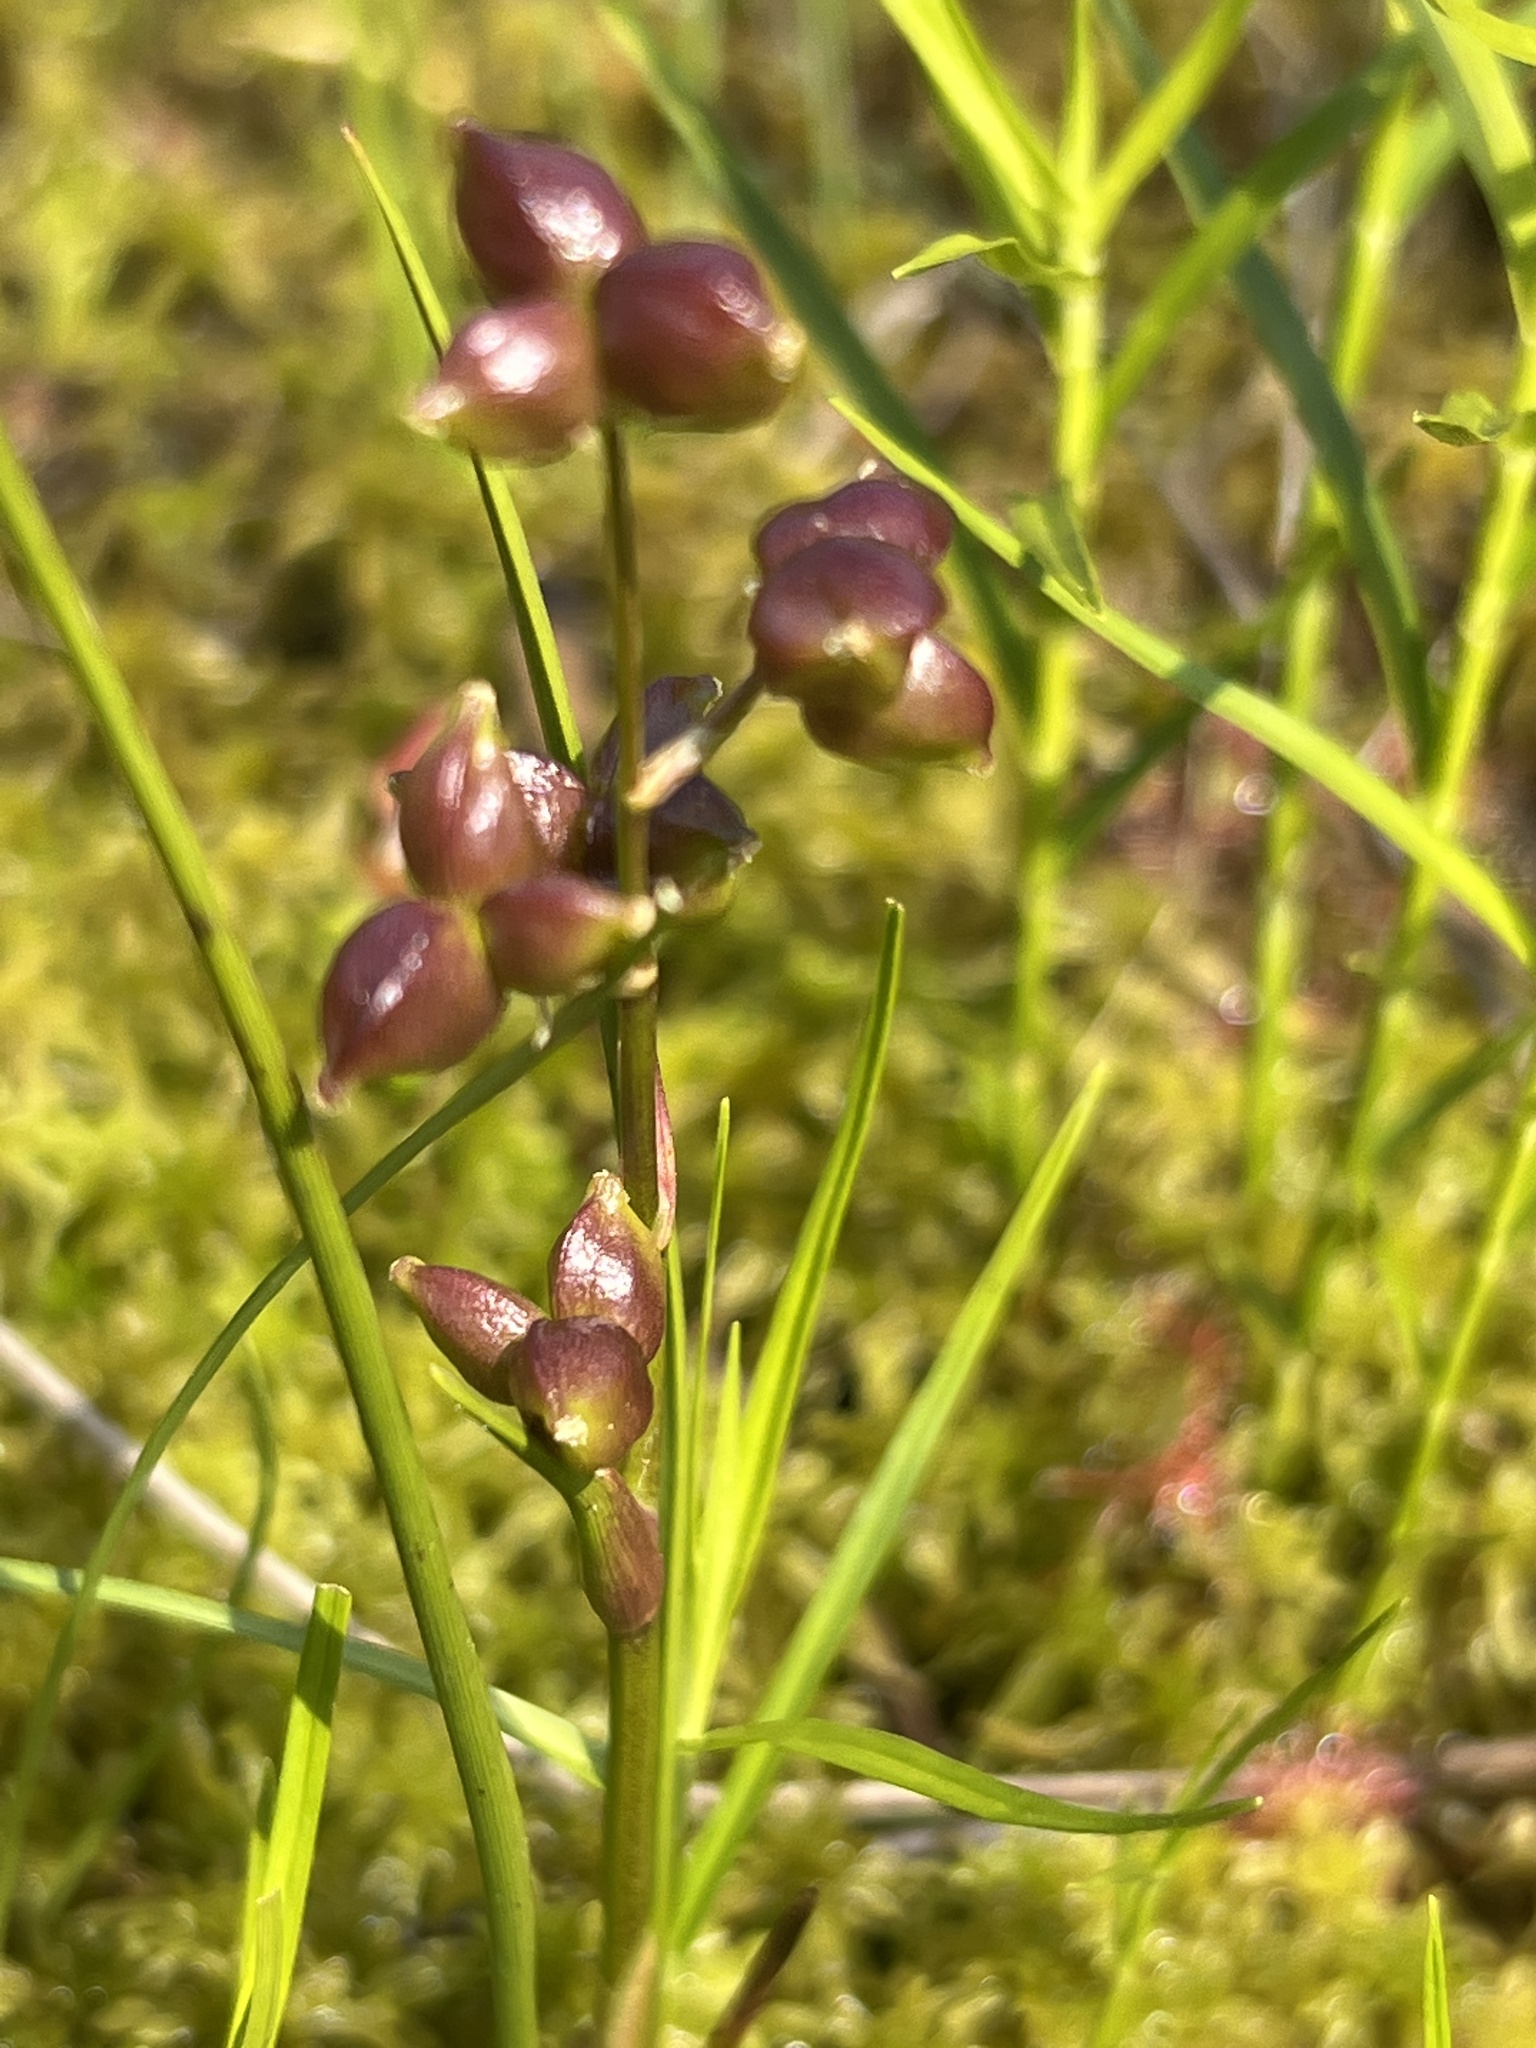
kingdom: Plantae
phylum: Tracheophyta
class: Liliopsida
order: Alismatales
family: Scheuchzeriaceae
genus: Scheuchzeria
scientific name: Scheuchzeria palustris
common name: Rannoch-rush
